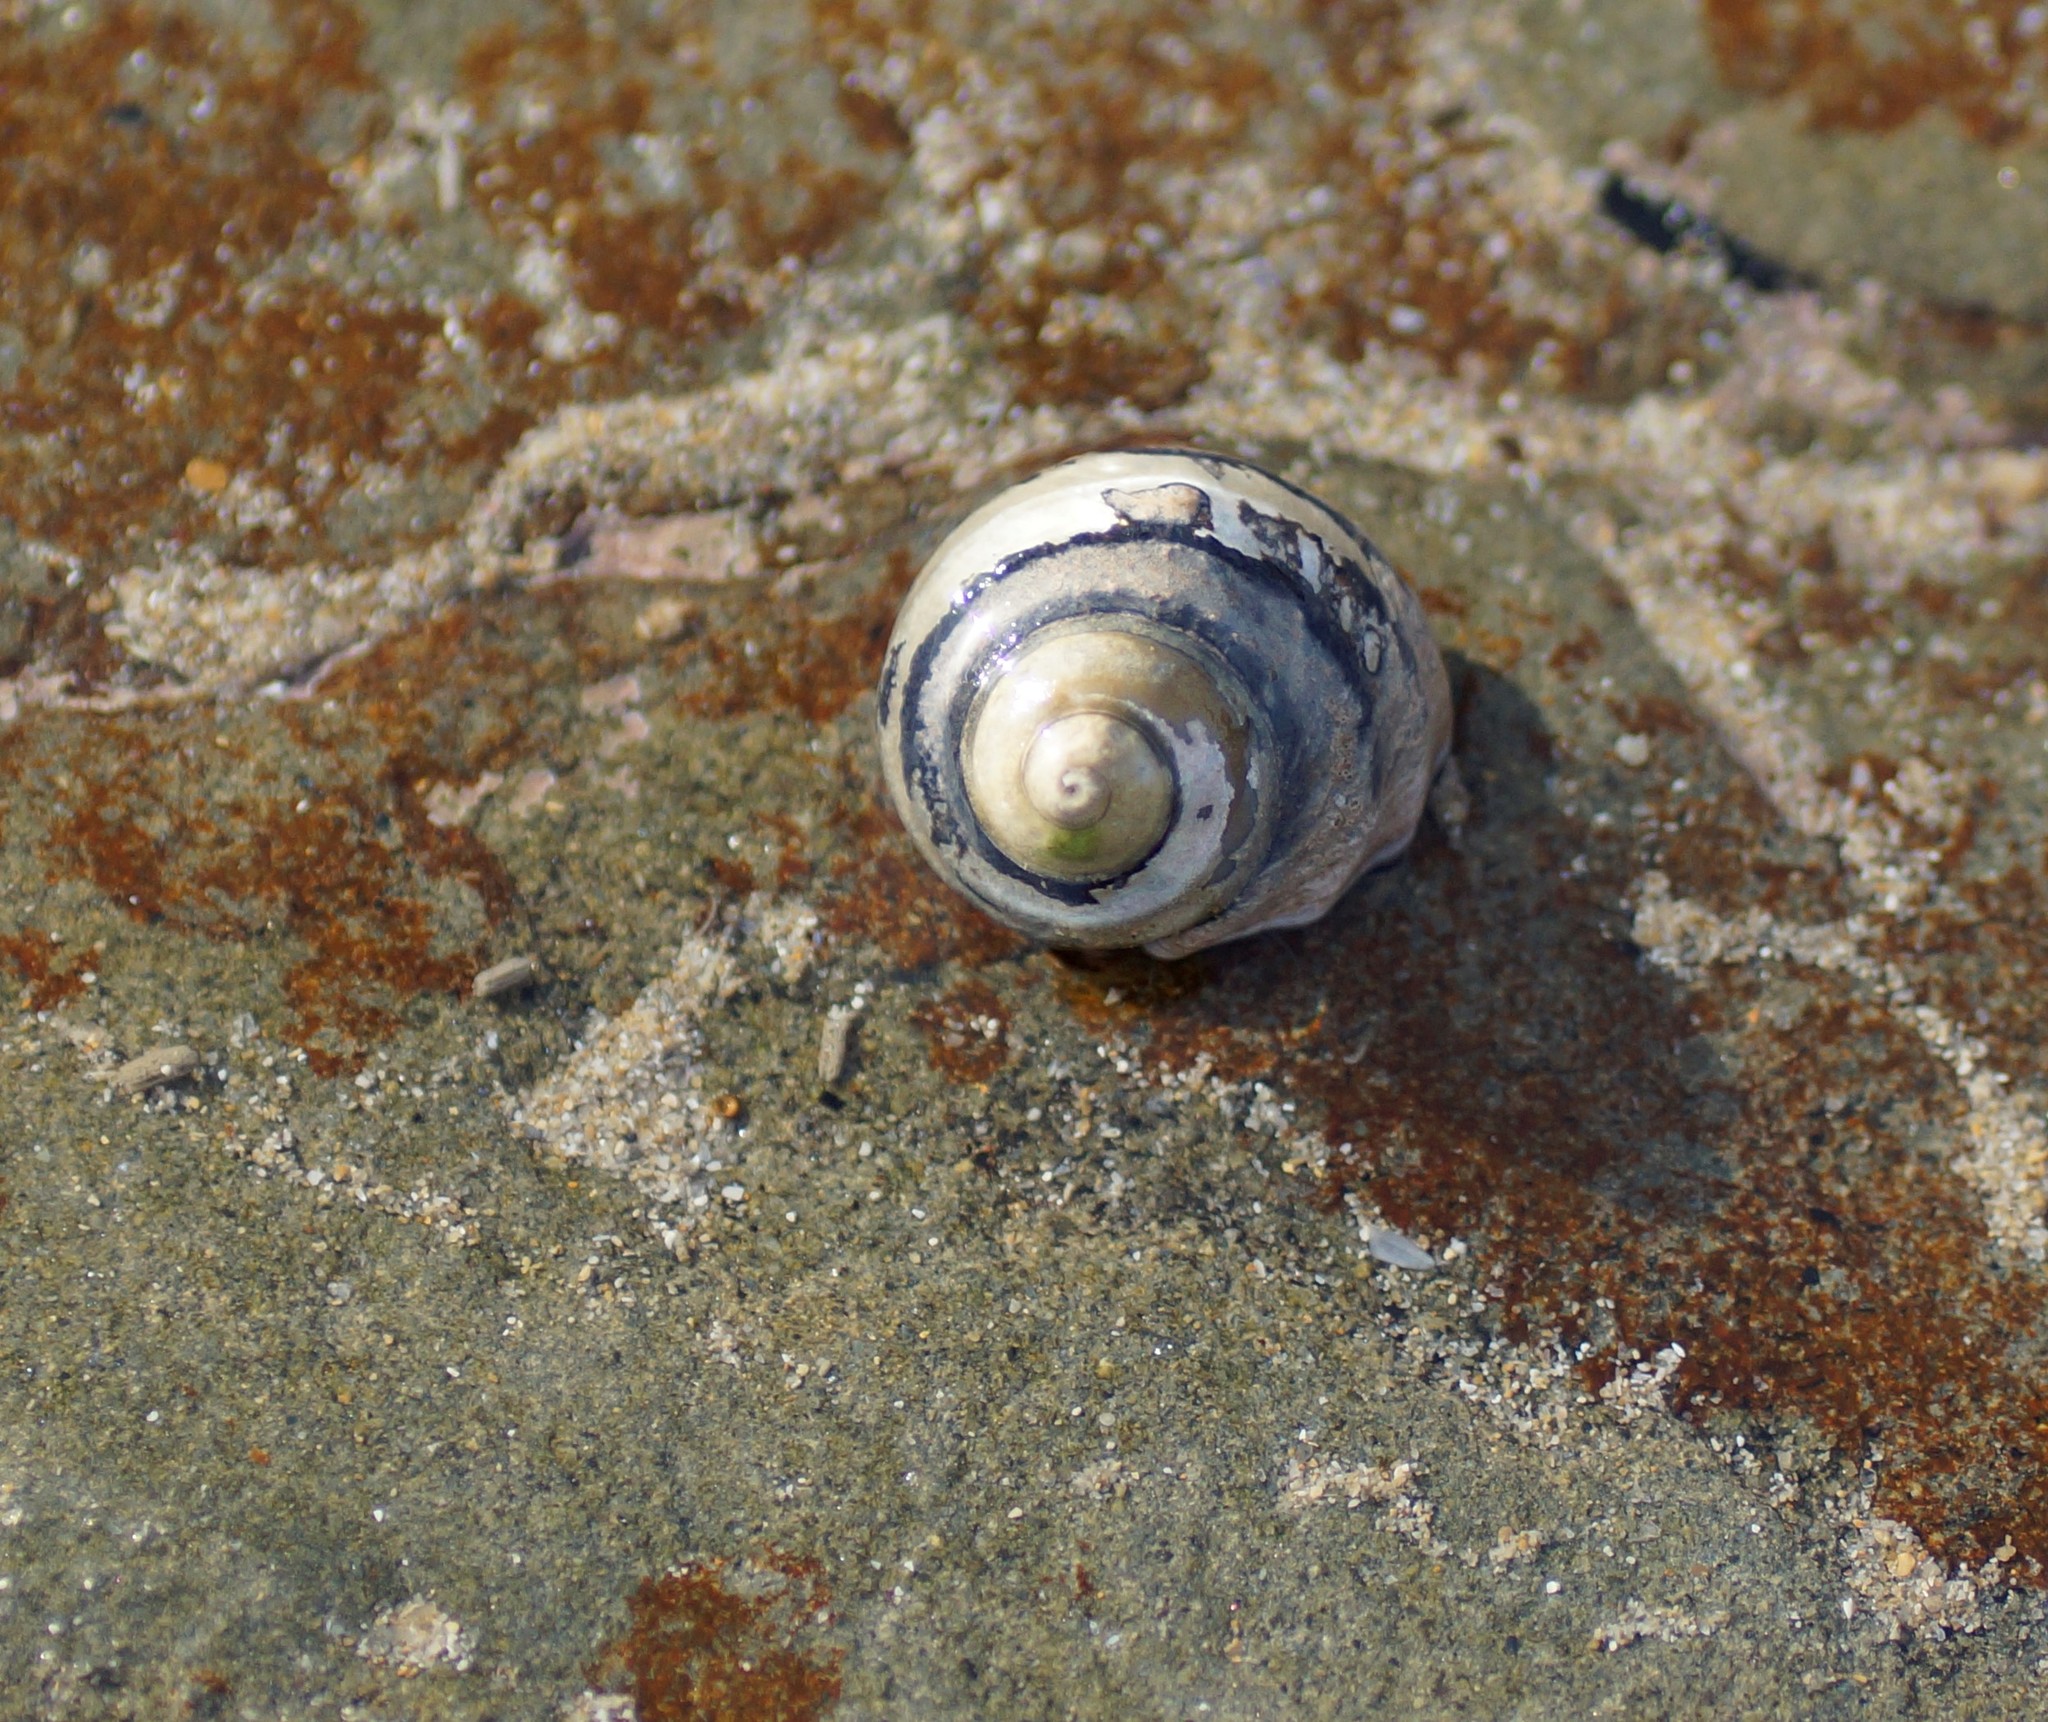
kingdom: Animalia
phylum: Mollusca
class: Gastropoda
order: Trochida
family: Trochidae
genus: Austrocochlea
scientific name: Austrocochlea constricta
